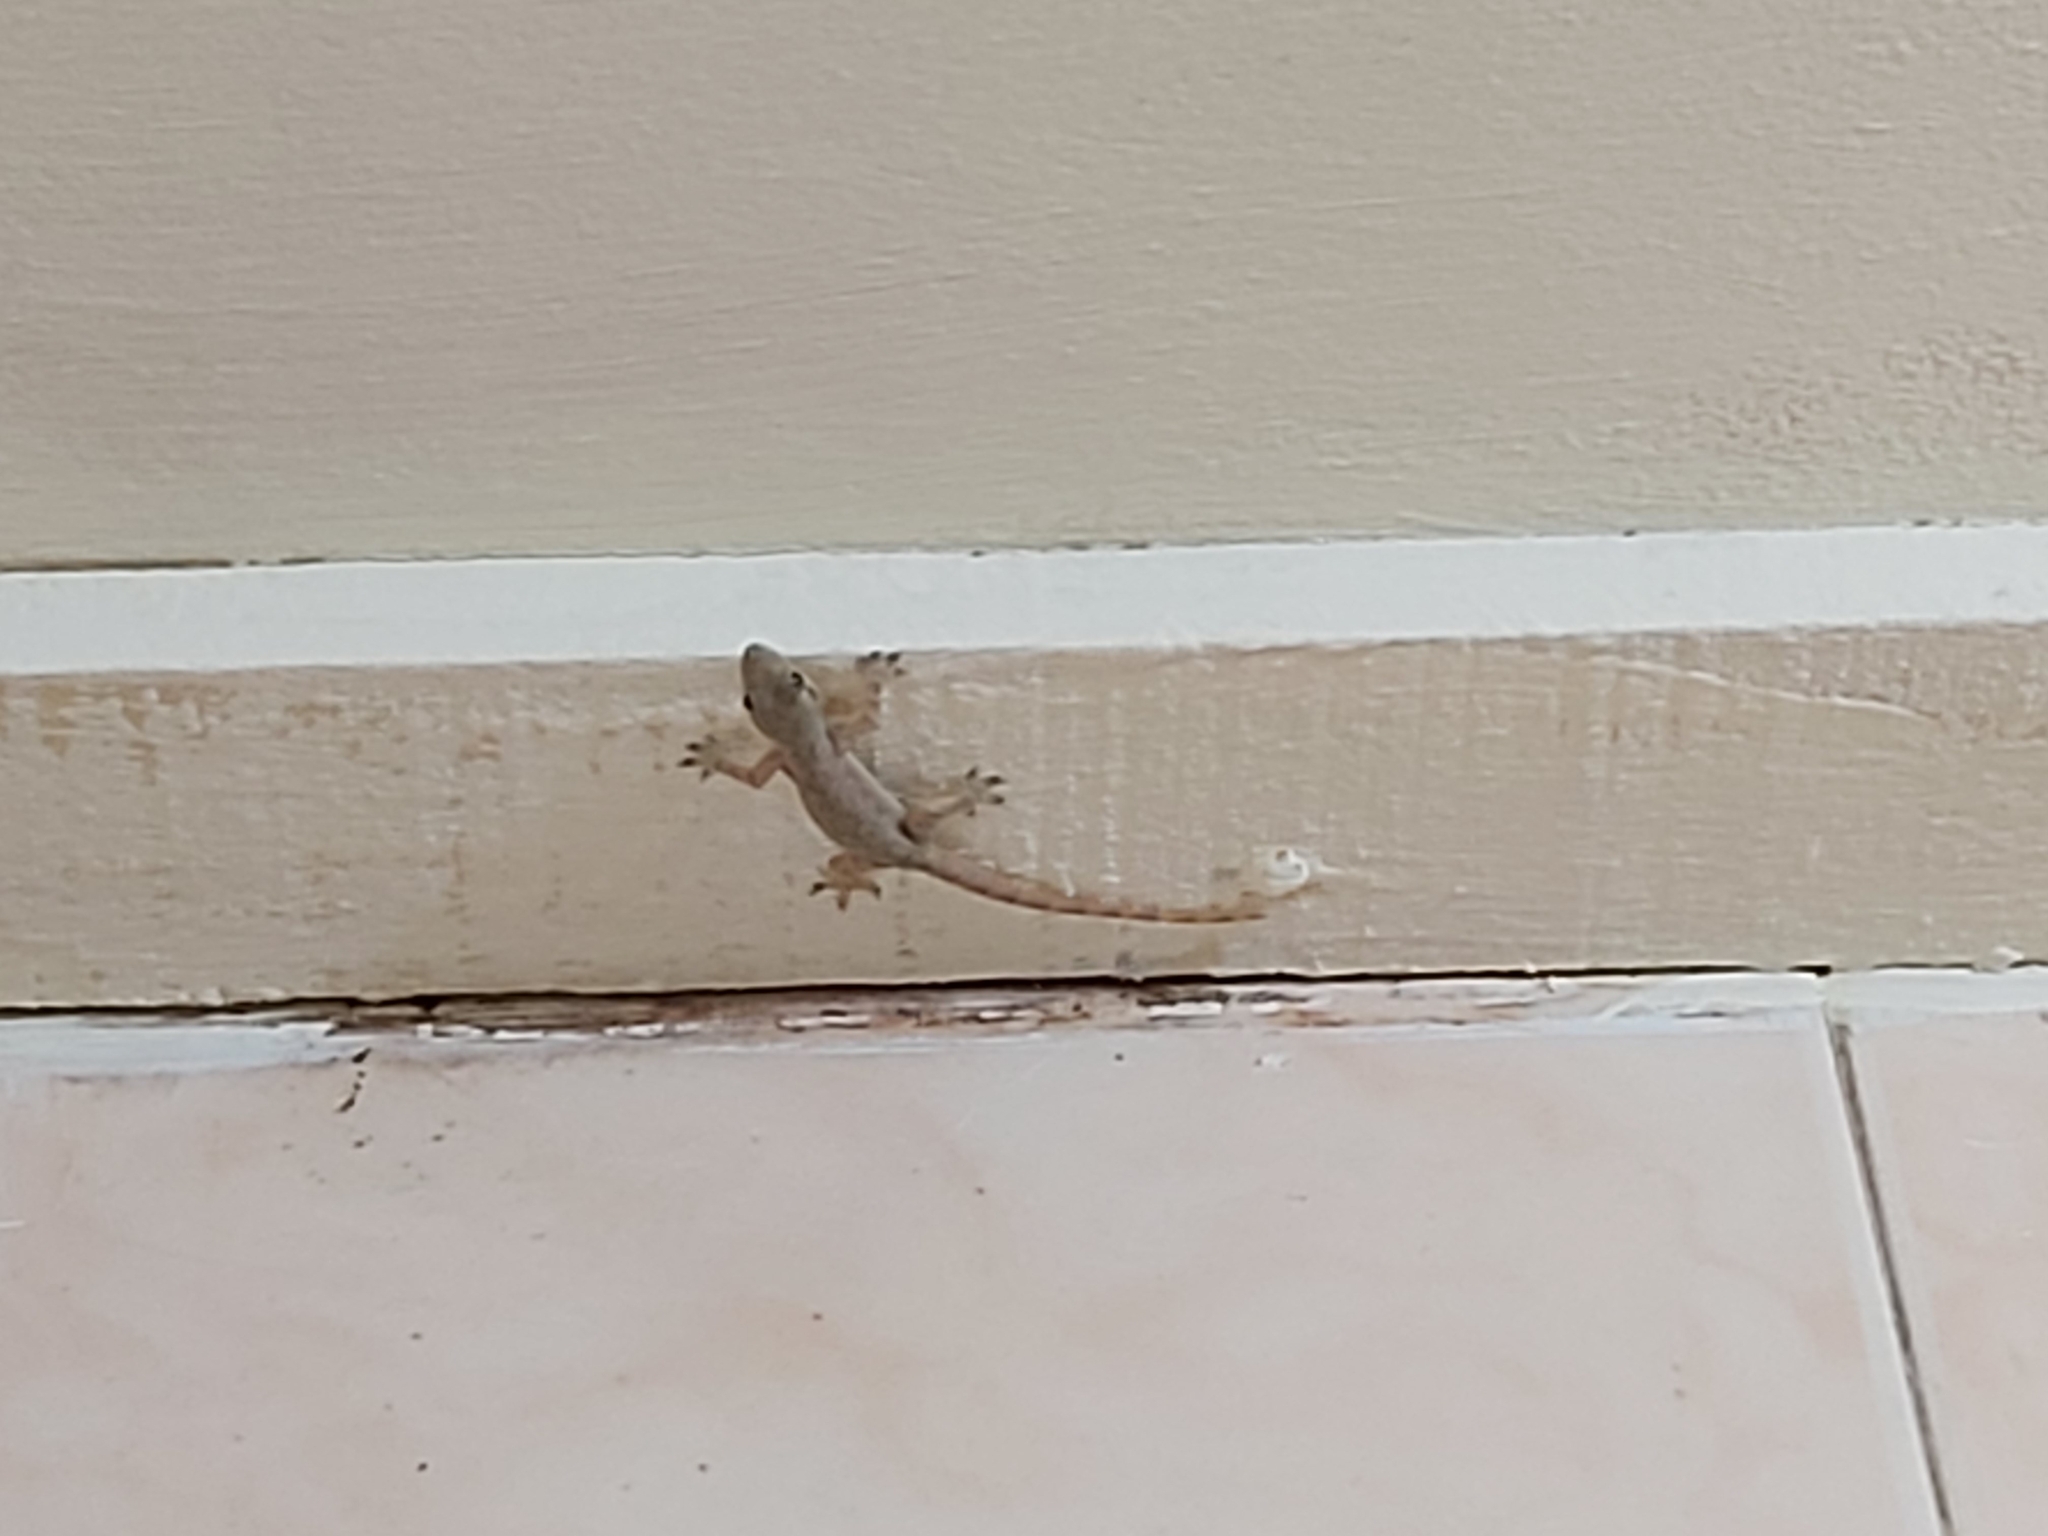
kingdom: Animalia
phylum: Chordata
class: Squamata
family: Gekkonidae
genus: Hemidactylus
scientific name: Hemidactylus platyurus
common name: Flat-tailed house gecko
